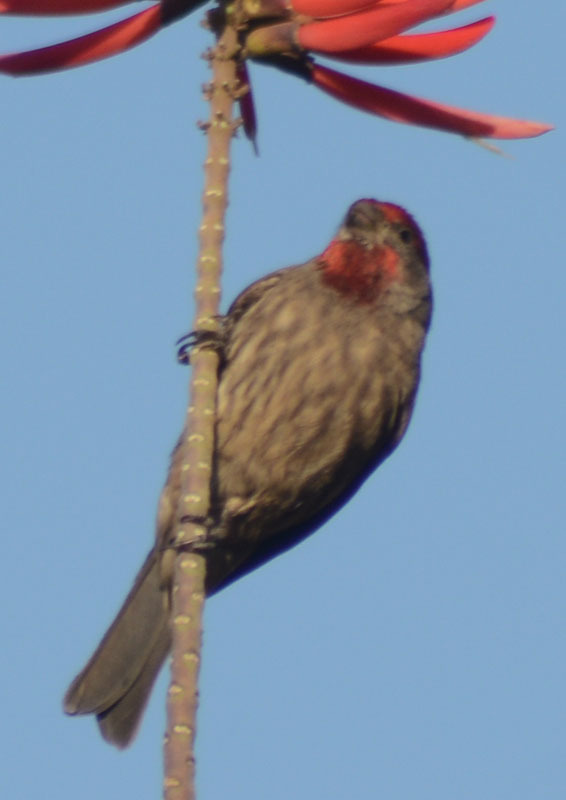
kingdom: Animalia
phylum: Chordata
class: Aves
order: Passeriformes
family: Fringillidae
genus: Haemorhous
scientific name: Haemorhous mexicanus
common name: House finch
